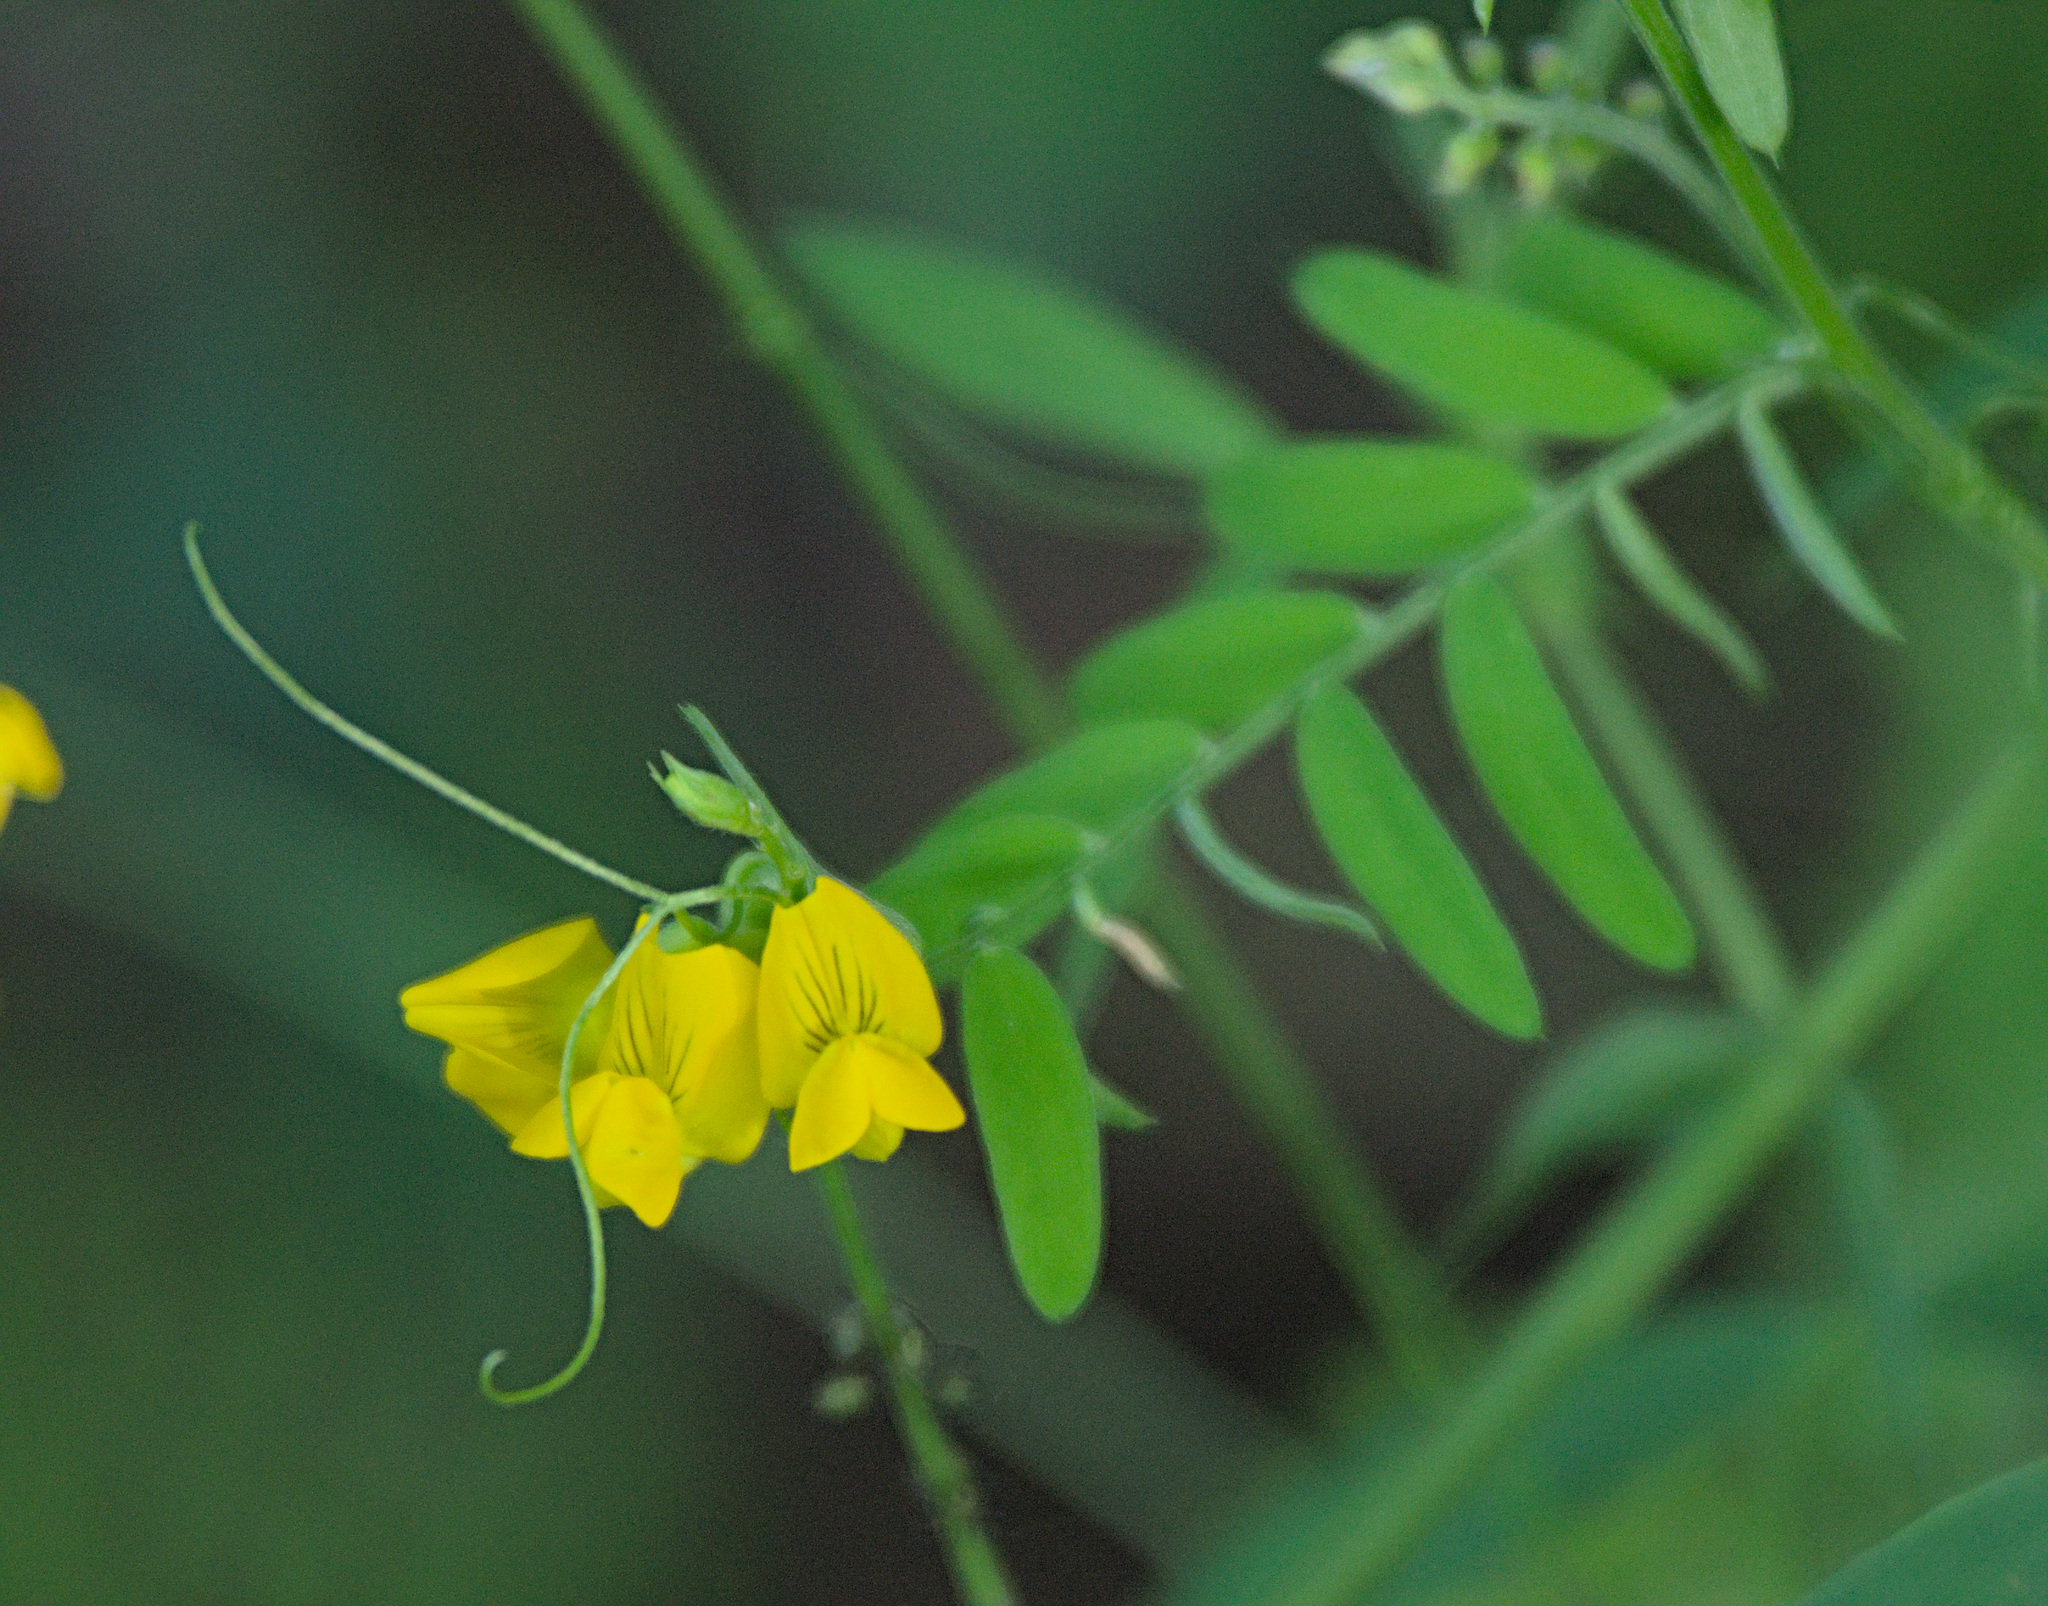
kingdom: Plantae
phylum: Tracheophyta
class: Magnoliopsida
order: Fabales
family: Fabaceae
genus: Lathyrus
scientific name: Lathyrus pratensis
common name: Meadow vetchling
